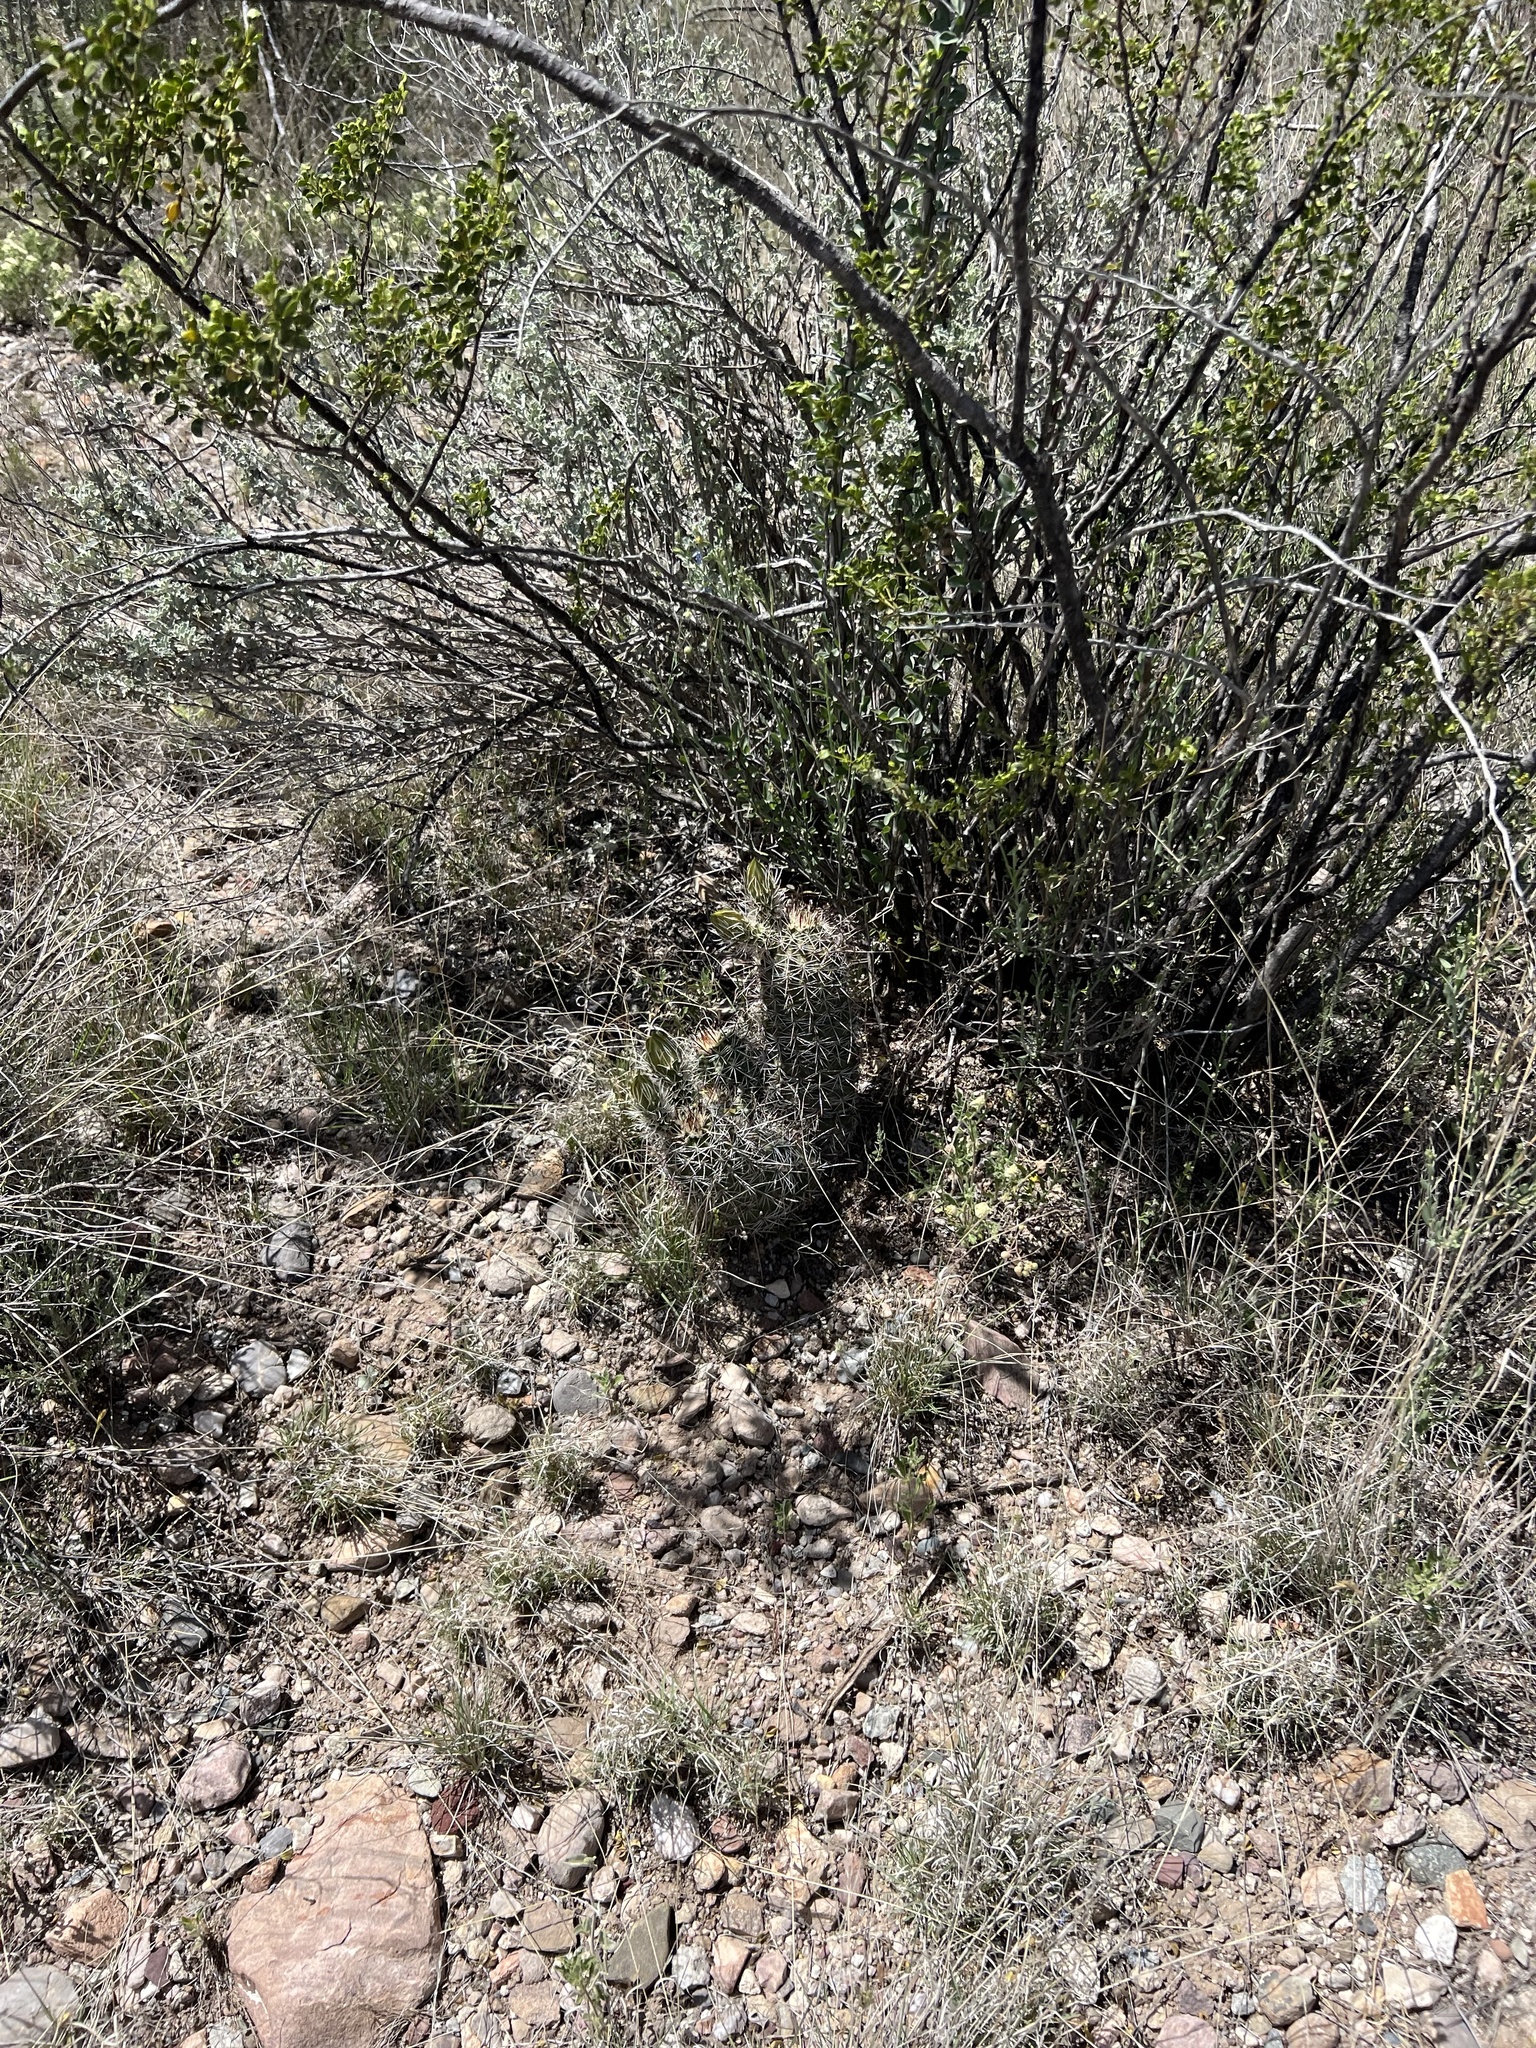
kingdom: Plantae
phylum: Tracheophyta
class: Magnoliopsida
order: Caryophyllales
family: Cactaceae
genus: Echinocereus
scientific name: Echinocereus fasciculatus
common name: Bundle hedgehog
